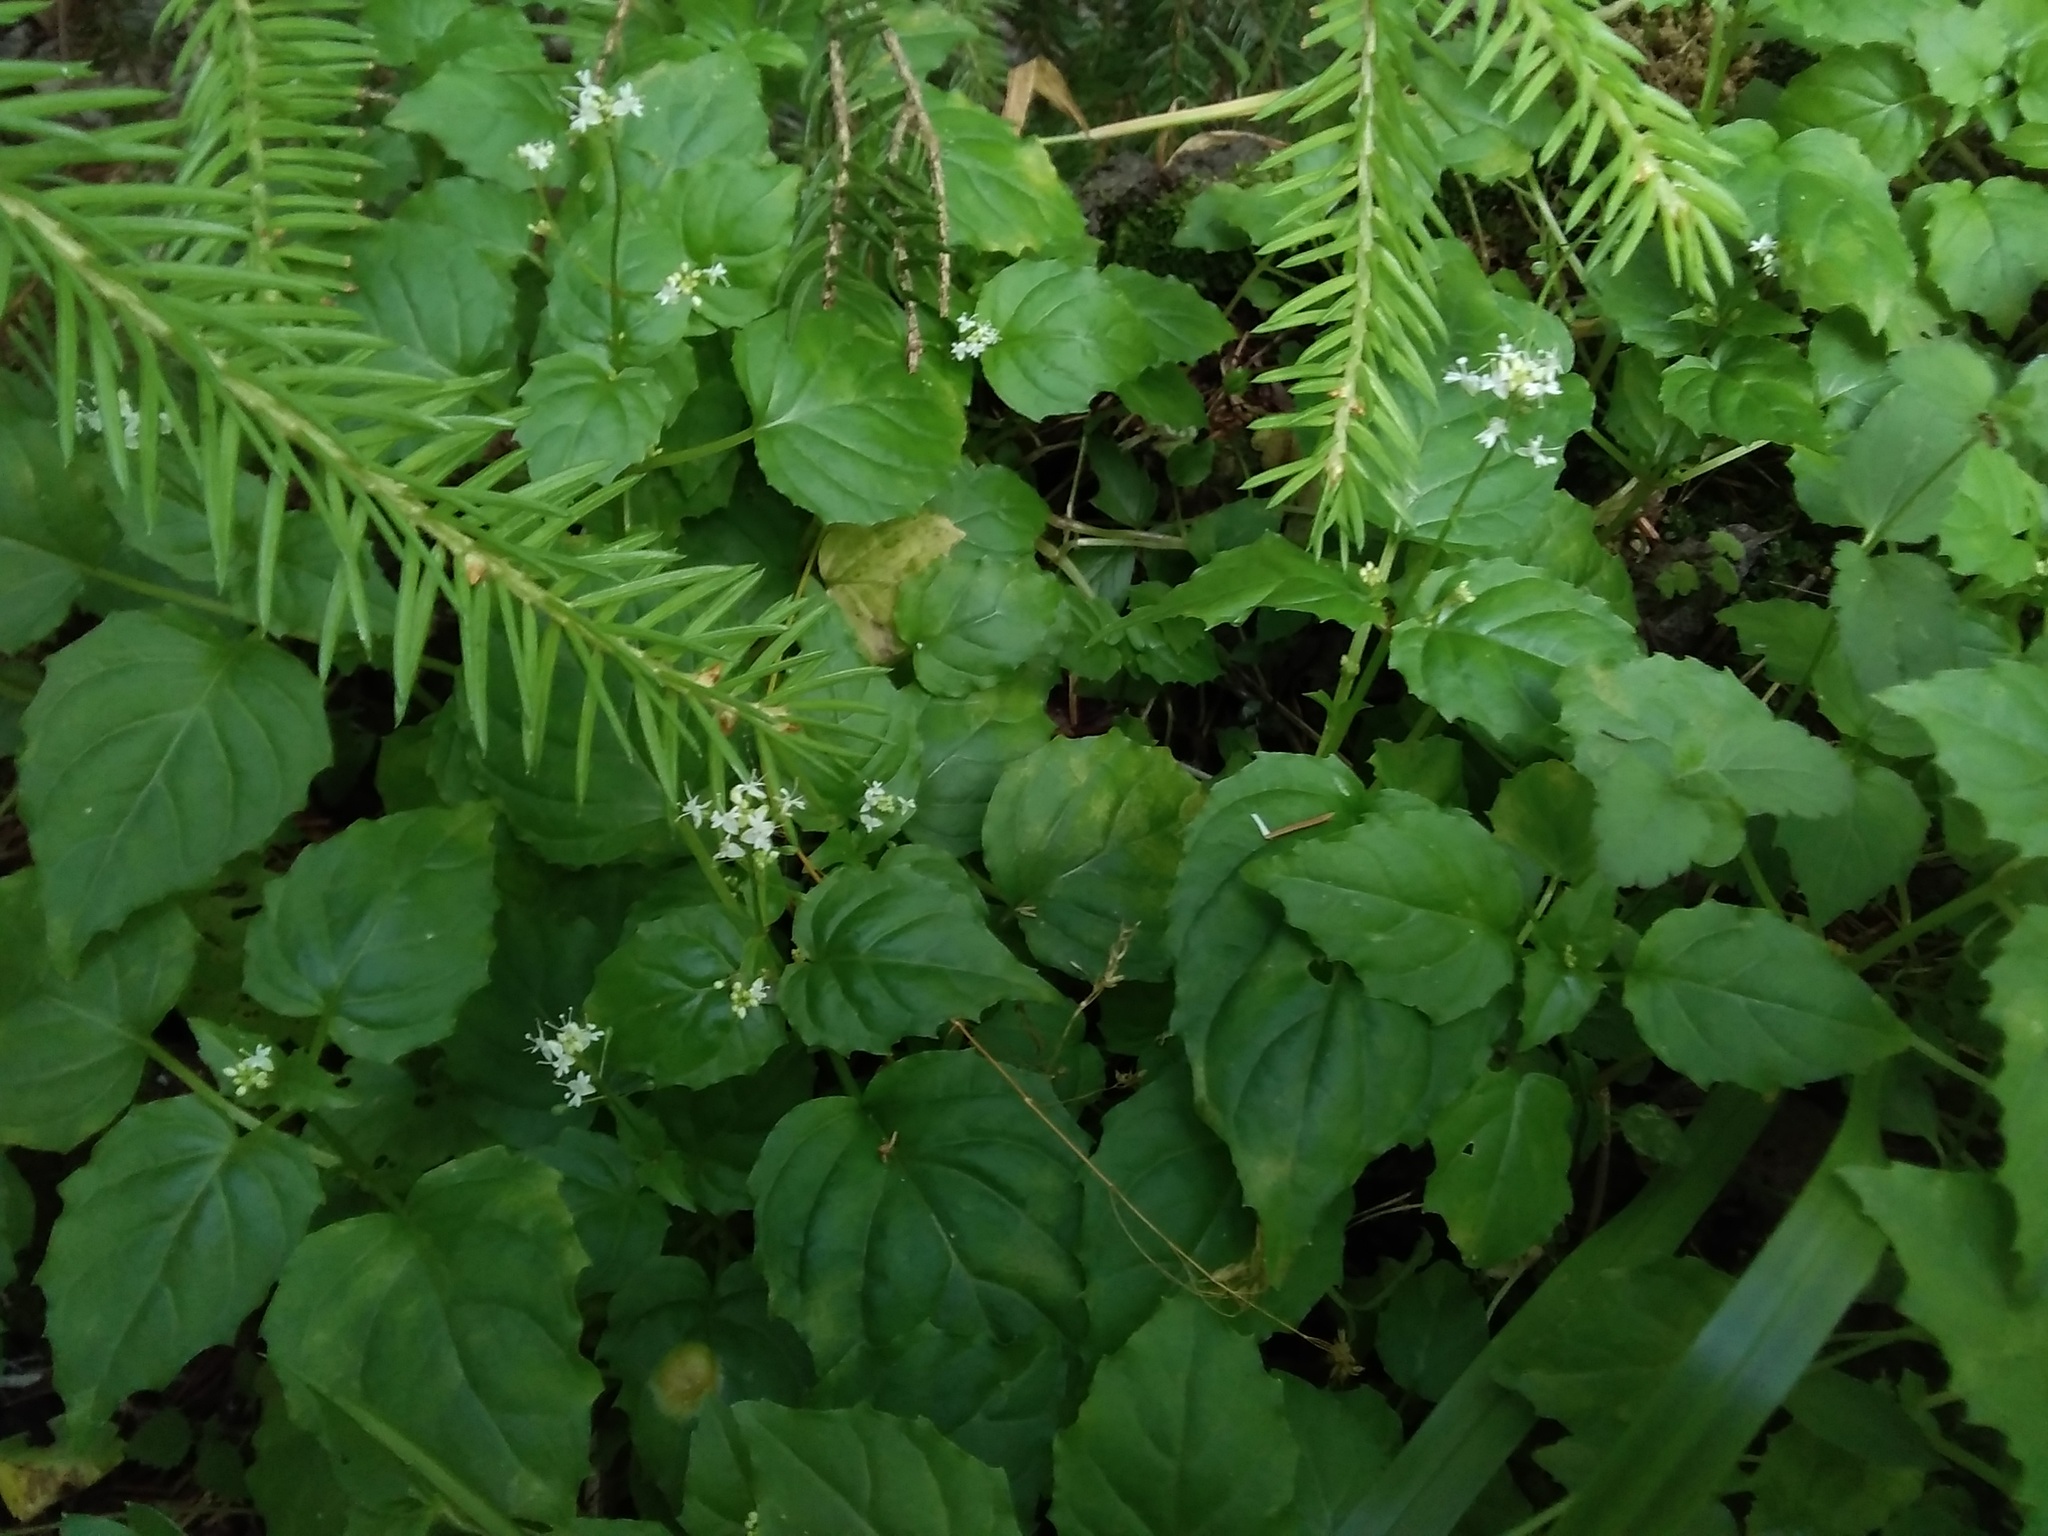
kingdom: Plantae
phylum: Tracheophyta
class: Magnoliopsida
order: Myrtales
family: Onagraceae
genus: Circaea
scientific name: Circaea alpina
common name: Alpine enchanter's-nightshade
